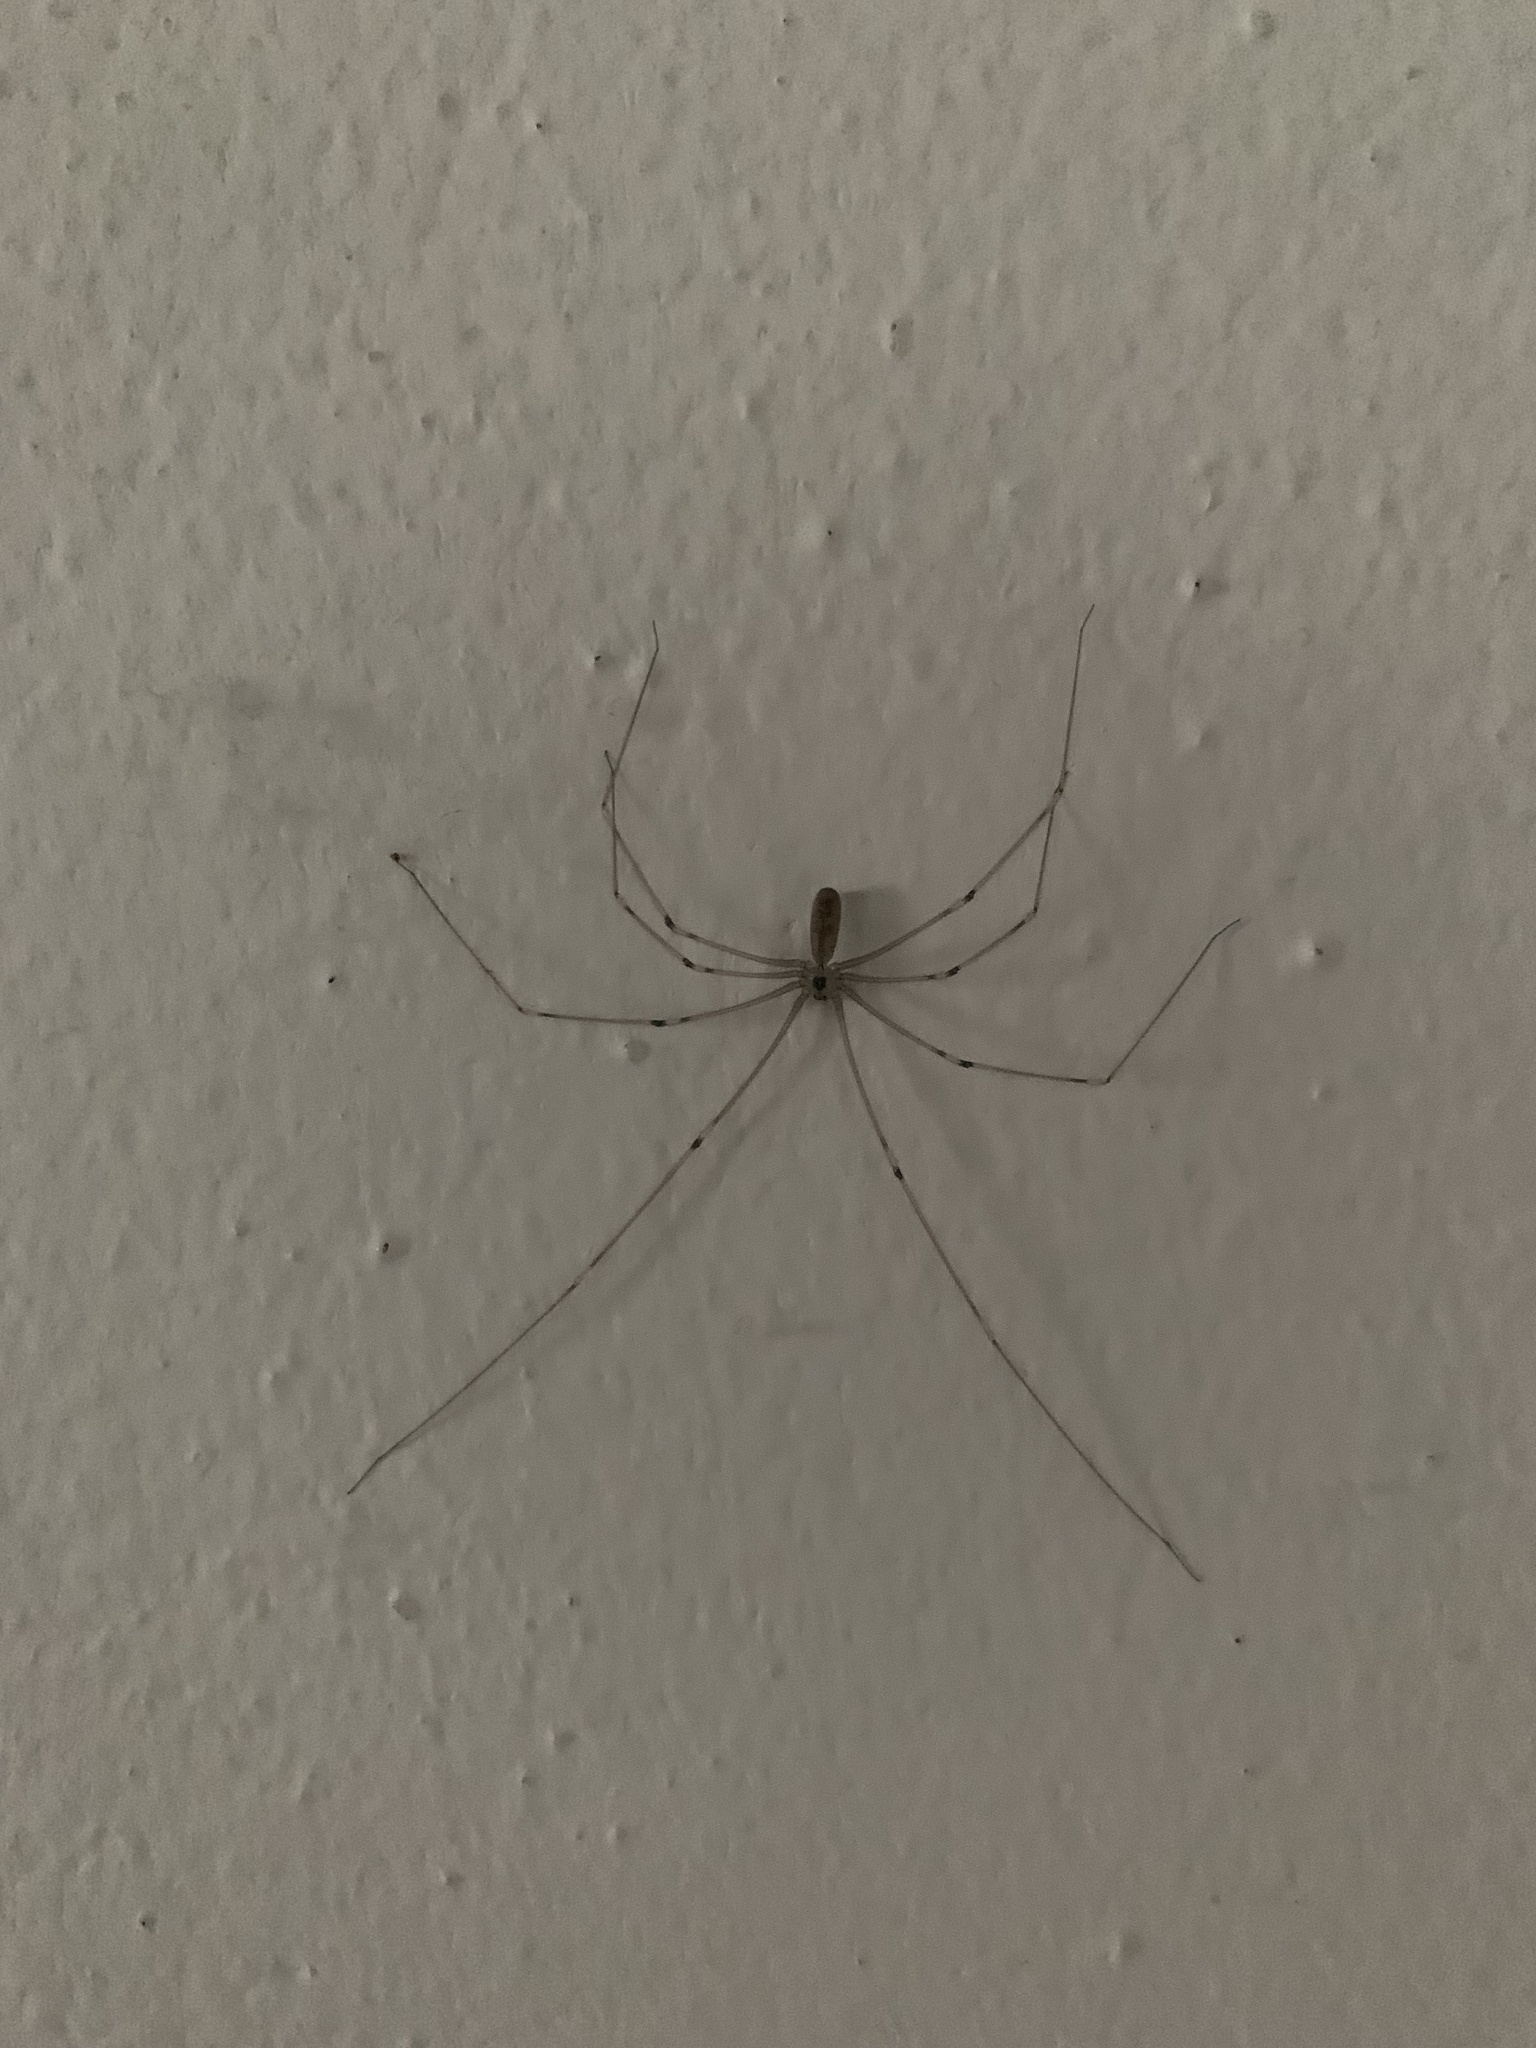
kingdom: Animalia
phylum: Arthropoda
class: Arachnida
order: Araneae
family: Pholcidae
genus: Pholcus
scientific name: Pholcus phalangioides
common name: Longbodied cellar spider
